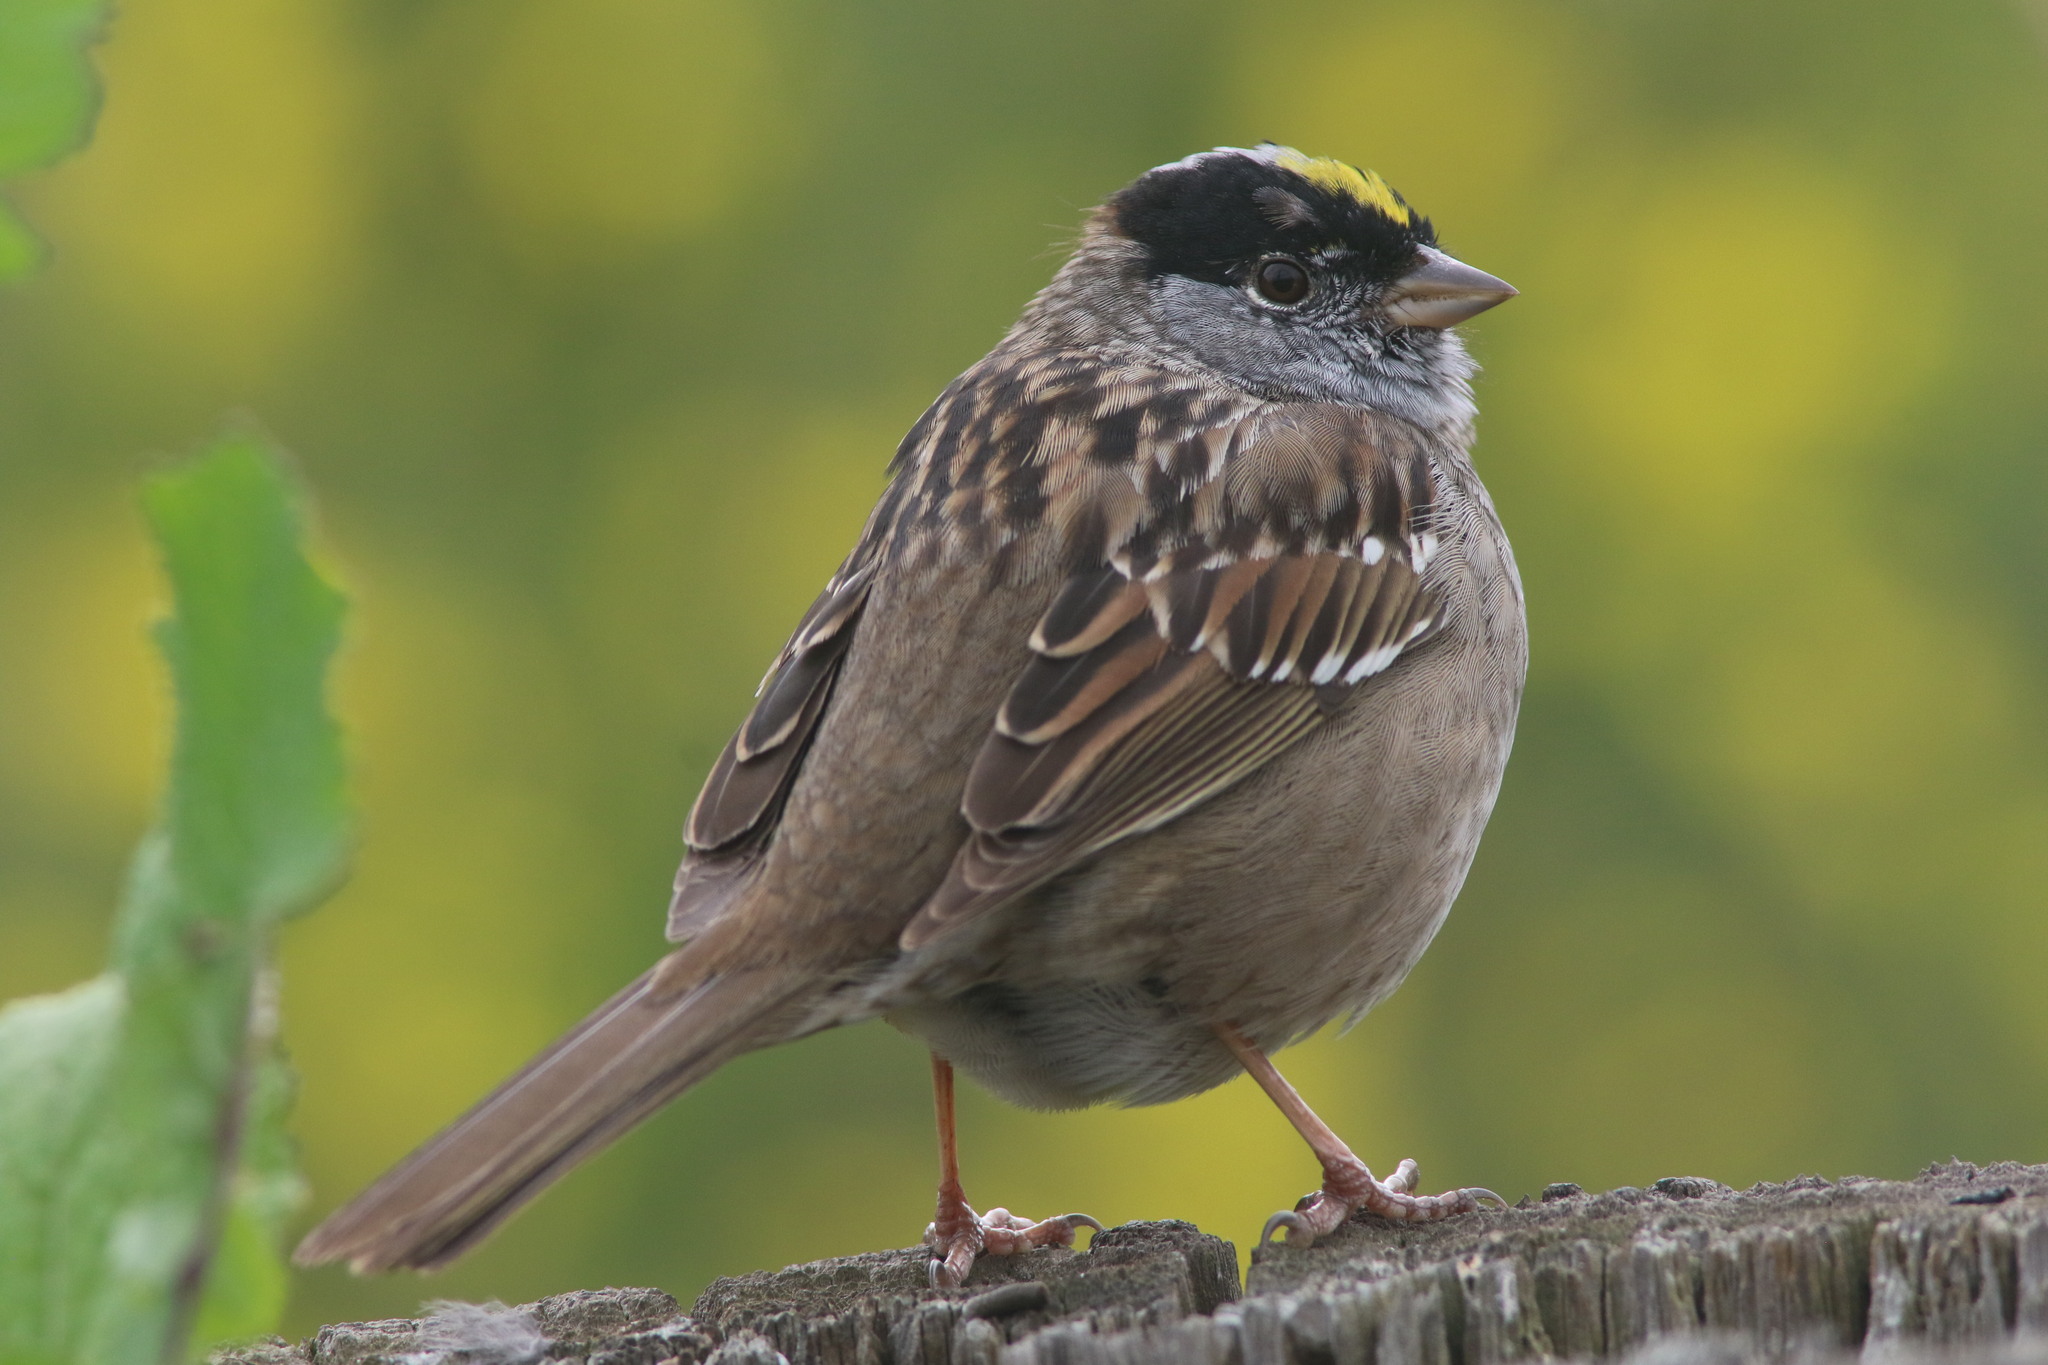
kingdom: Animalia
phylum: Chordata
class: Aves
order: Passeriformes
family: Passerellidae
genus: Zonotrichia
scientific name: Zonotrichia atricapilla
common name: Golden-crowned sparrow
